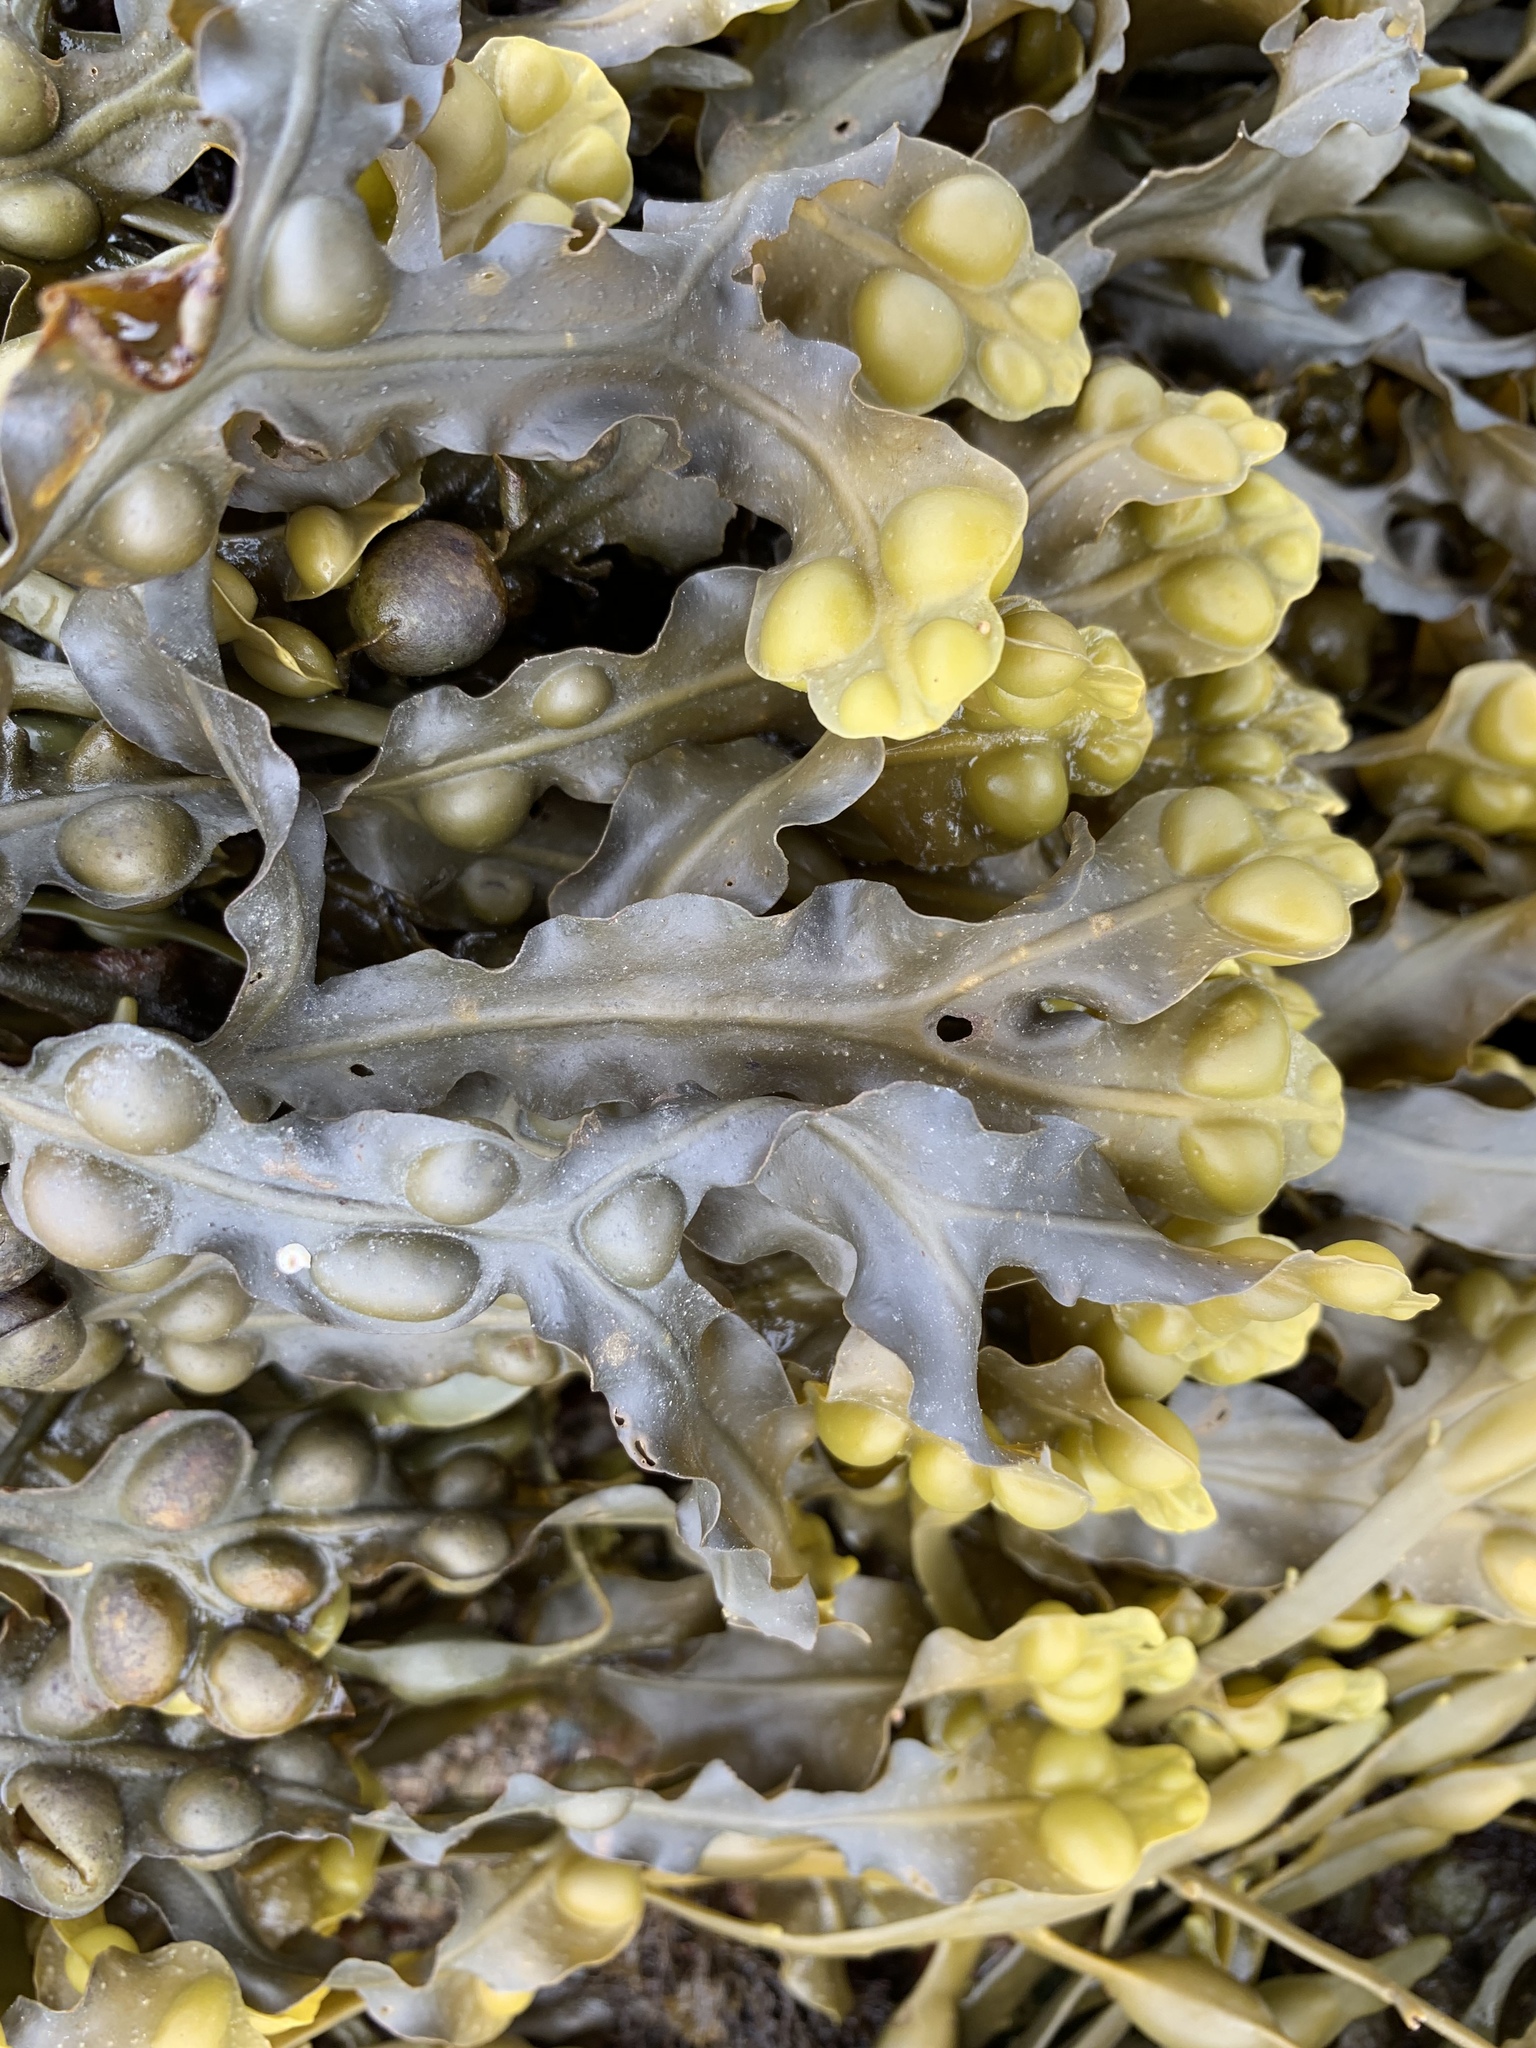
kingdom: Chromista
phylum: Ochrophyta
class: Phaeophyceae
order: Fucales
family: Fucaceae
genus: Fucus
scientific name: Fucus vesiculosus
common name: Bladder wrack
